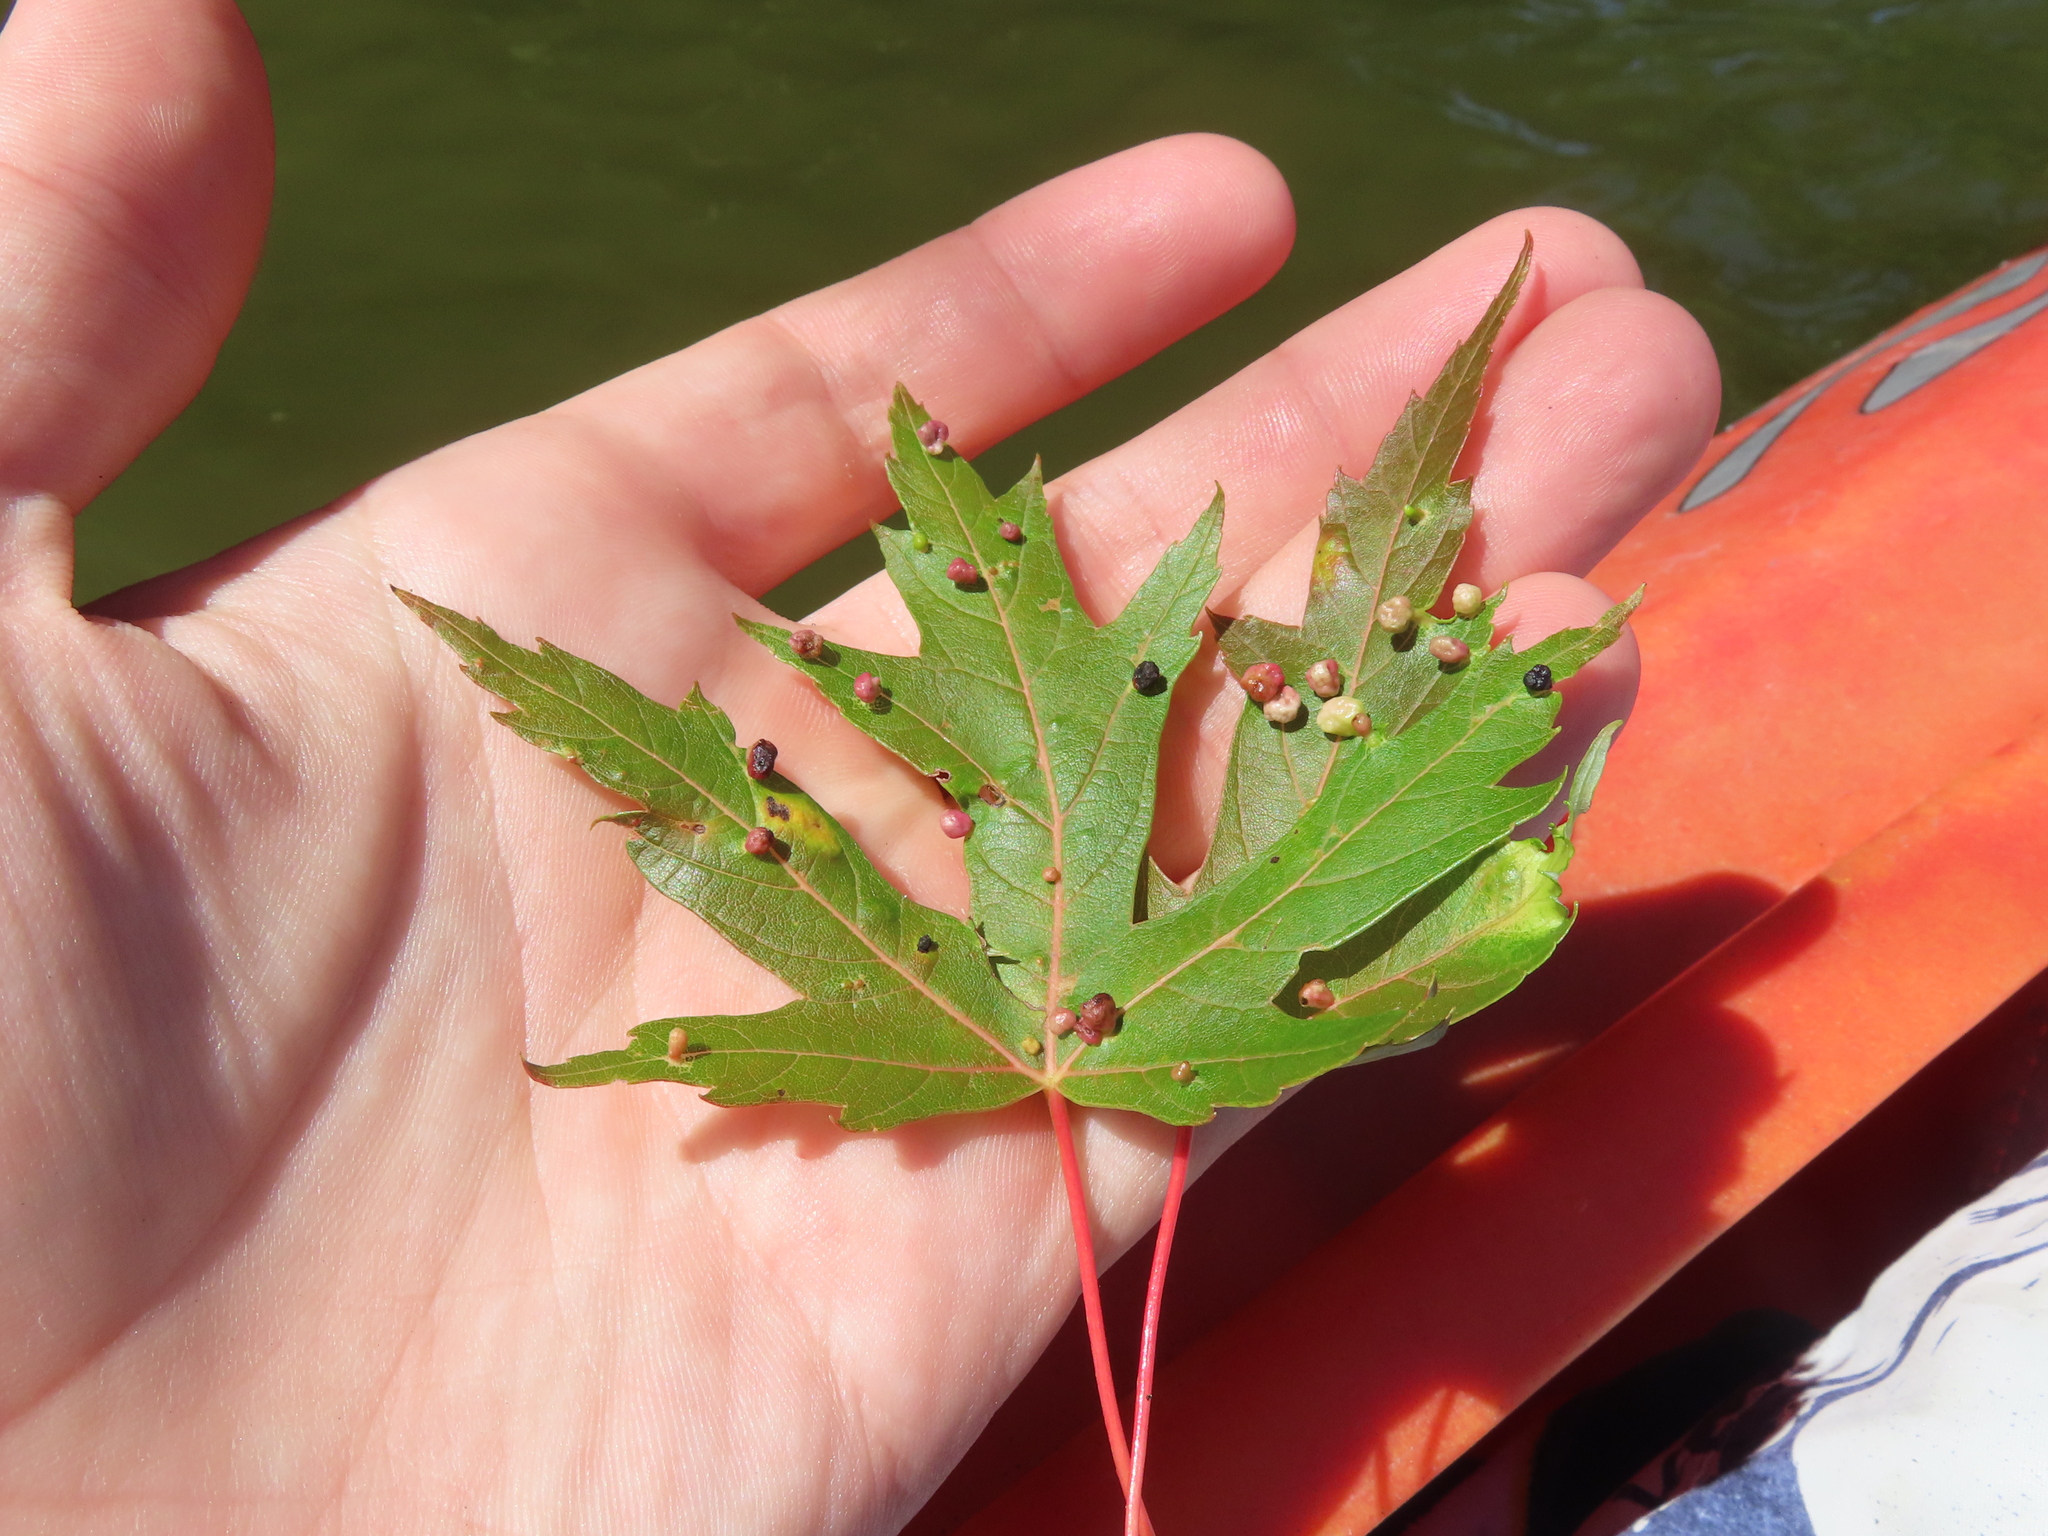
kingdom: Animalia
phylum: Arthropoda
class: Arachnida
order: Trombidiformes
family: Eriophyidae
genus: Vasates
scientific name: Vasates quadripedes
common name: Maple bladder gall mite
